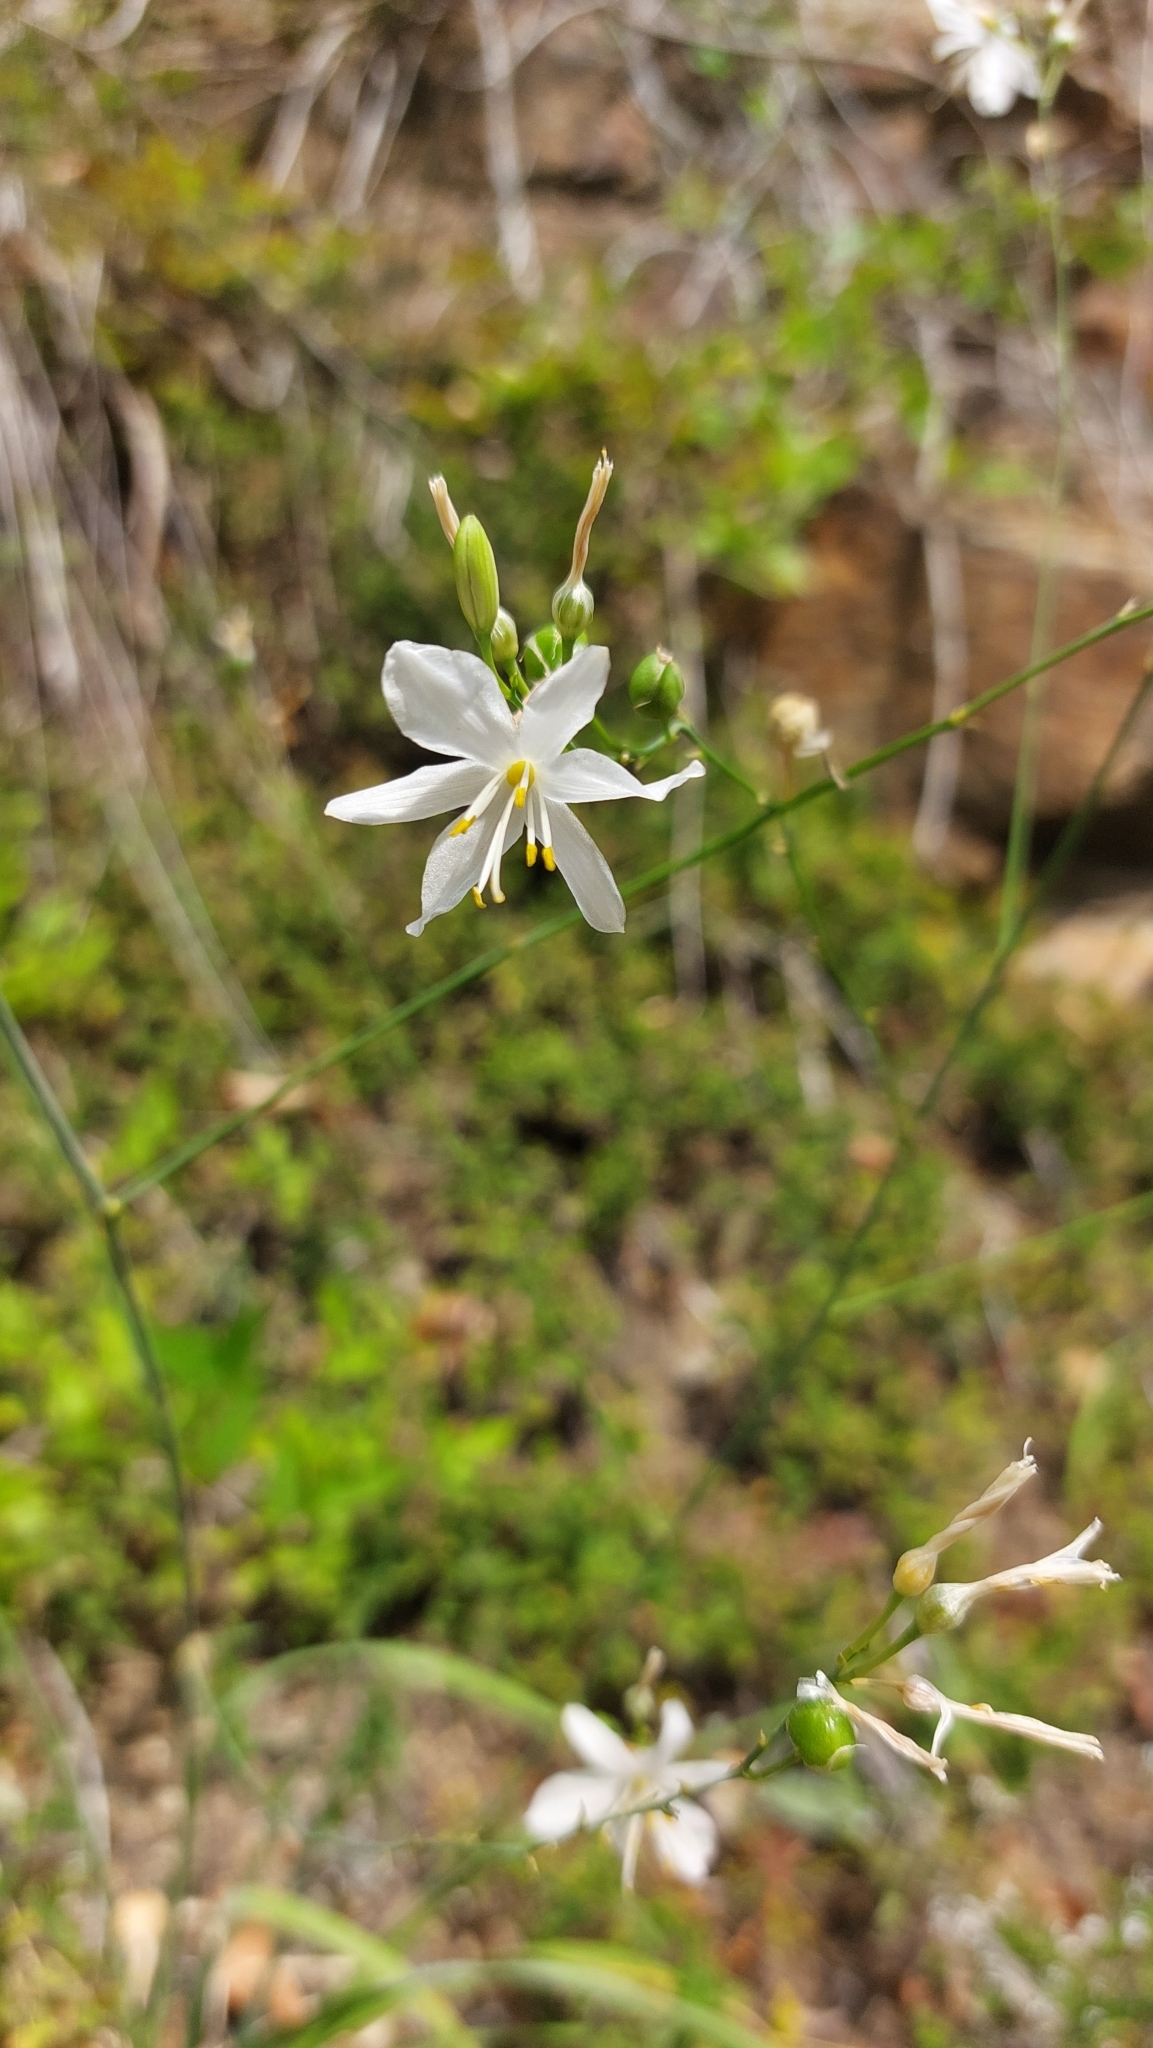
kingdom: Plantae
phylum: Tracheophyta
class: Liliopsida
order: Asparagales
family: Asparagaceae
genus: Anthericum
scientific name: Anthericum ramosum
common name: Branched st. bernard's-lily
